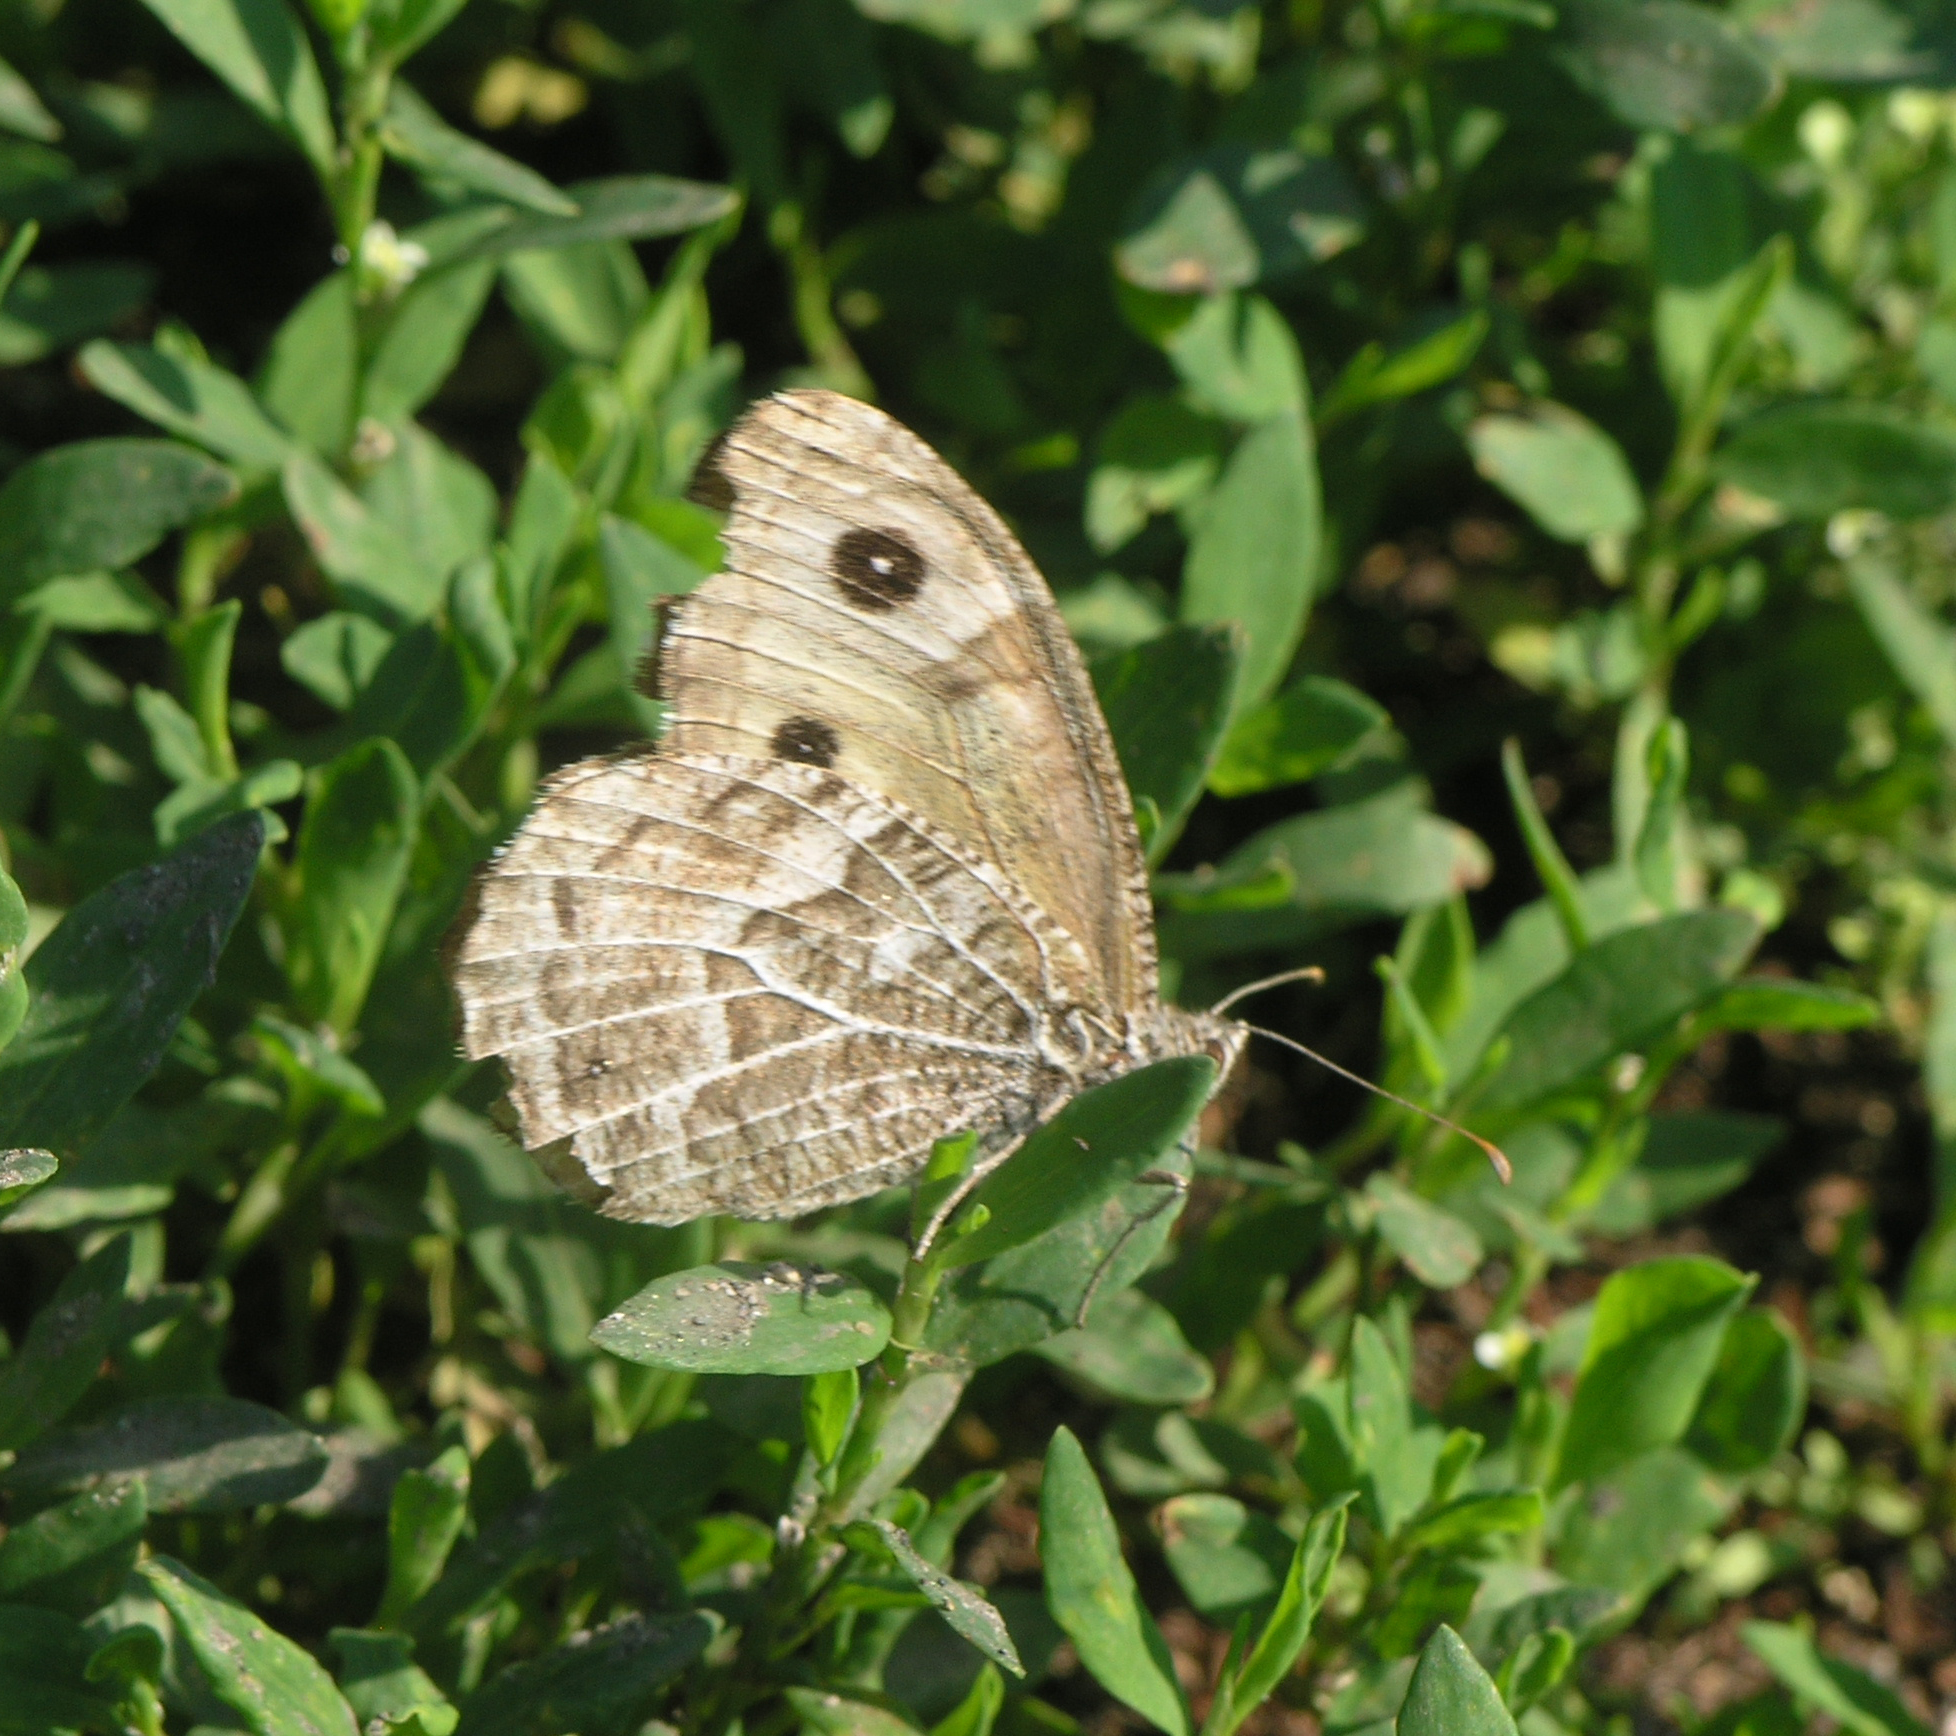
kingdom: Animalia
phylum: Arthropoda
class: Insecta
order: Lepidoptera
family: Nymphalidae
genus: Hipparchia
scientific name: Hipparchia autonoe
